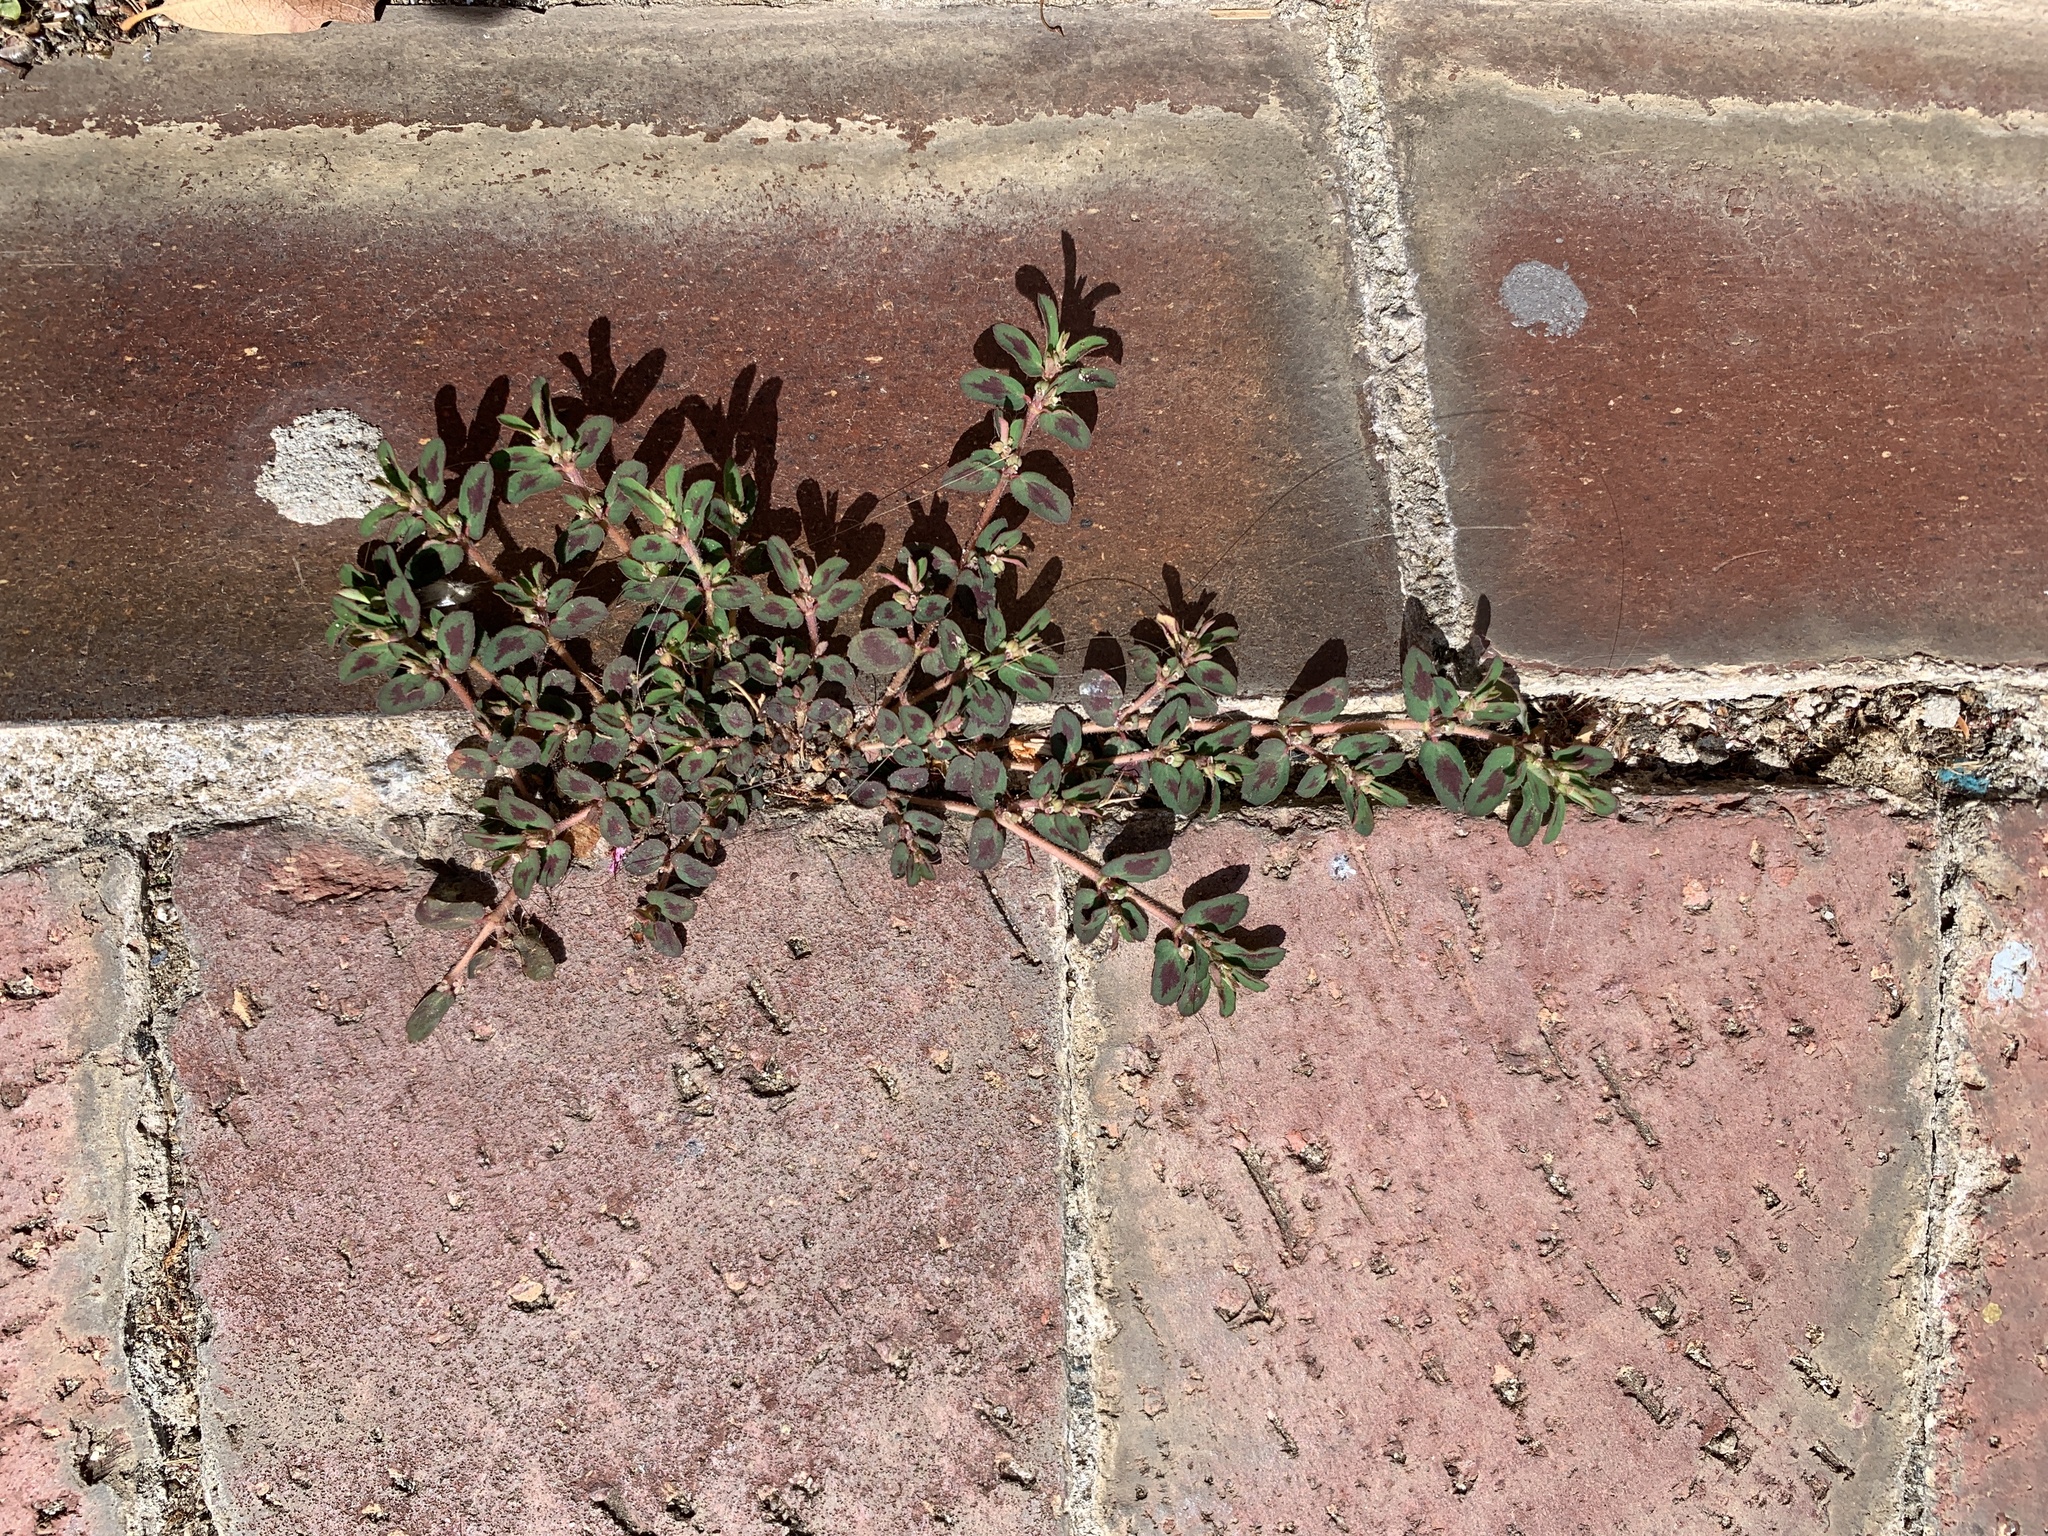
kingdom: Plantae
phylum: Tracheophyta
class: Magnoliopsida
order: Malpighiales
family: Euphorbiaceae
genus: Euphorbia
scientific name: Euphorbia maculata
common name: Spotted spurge
